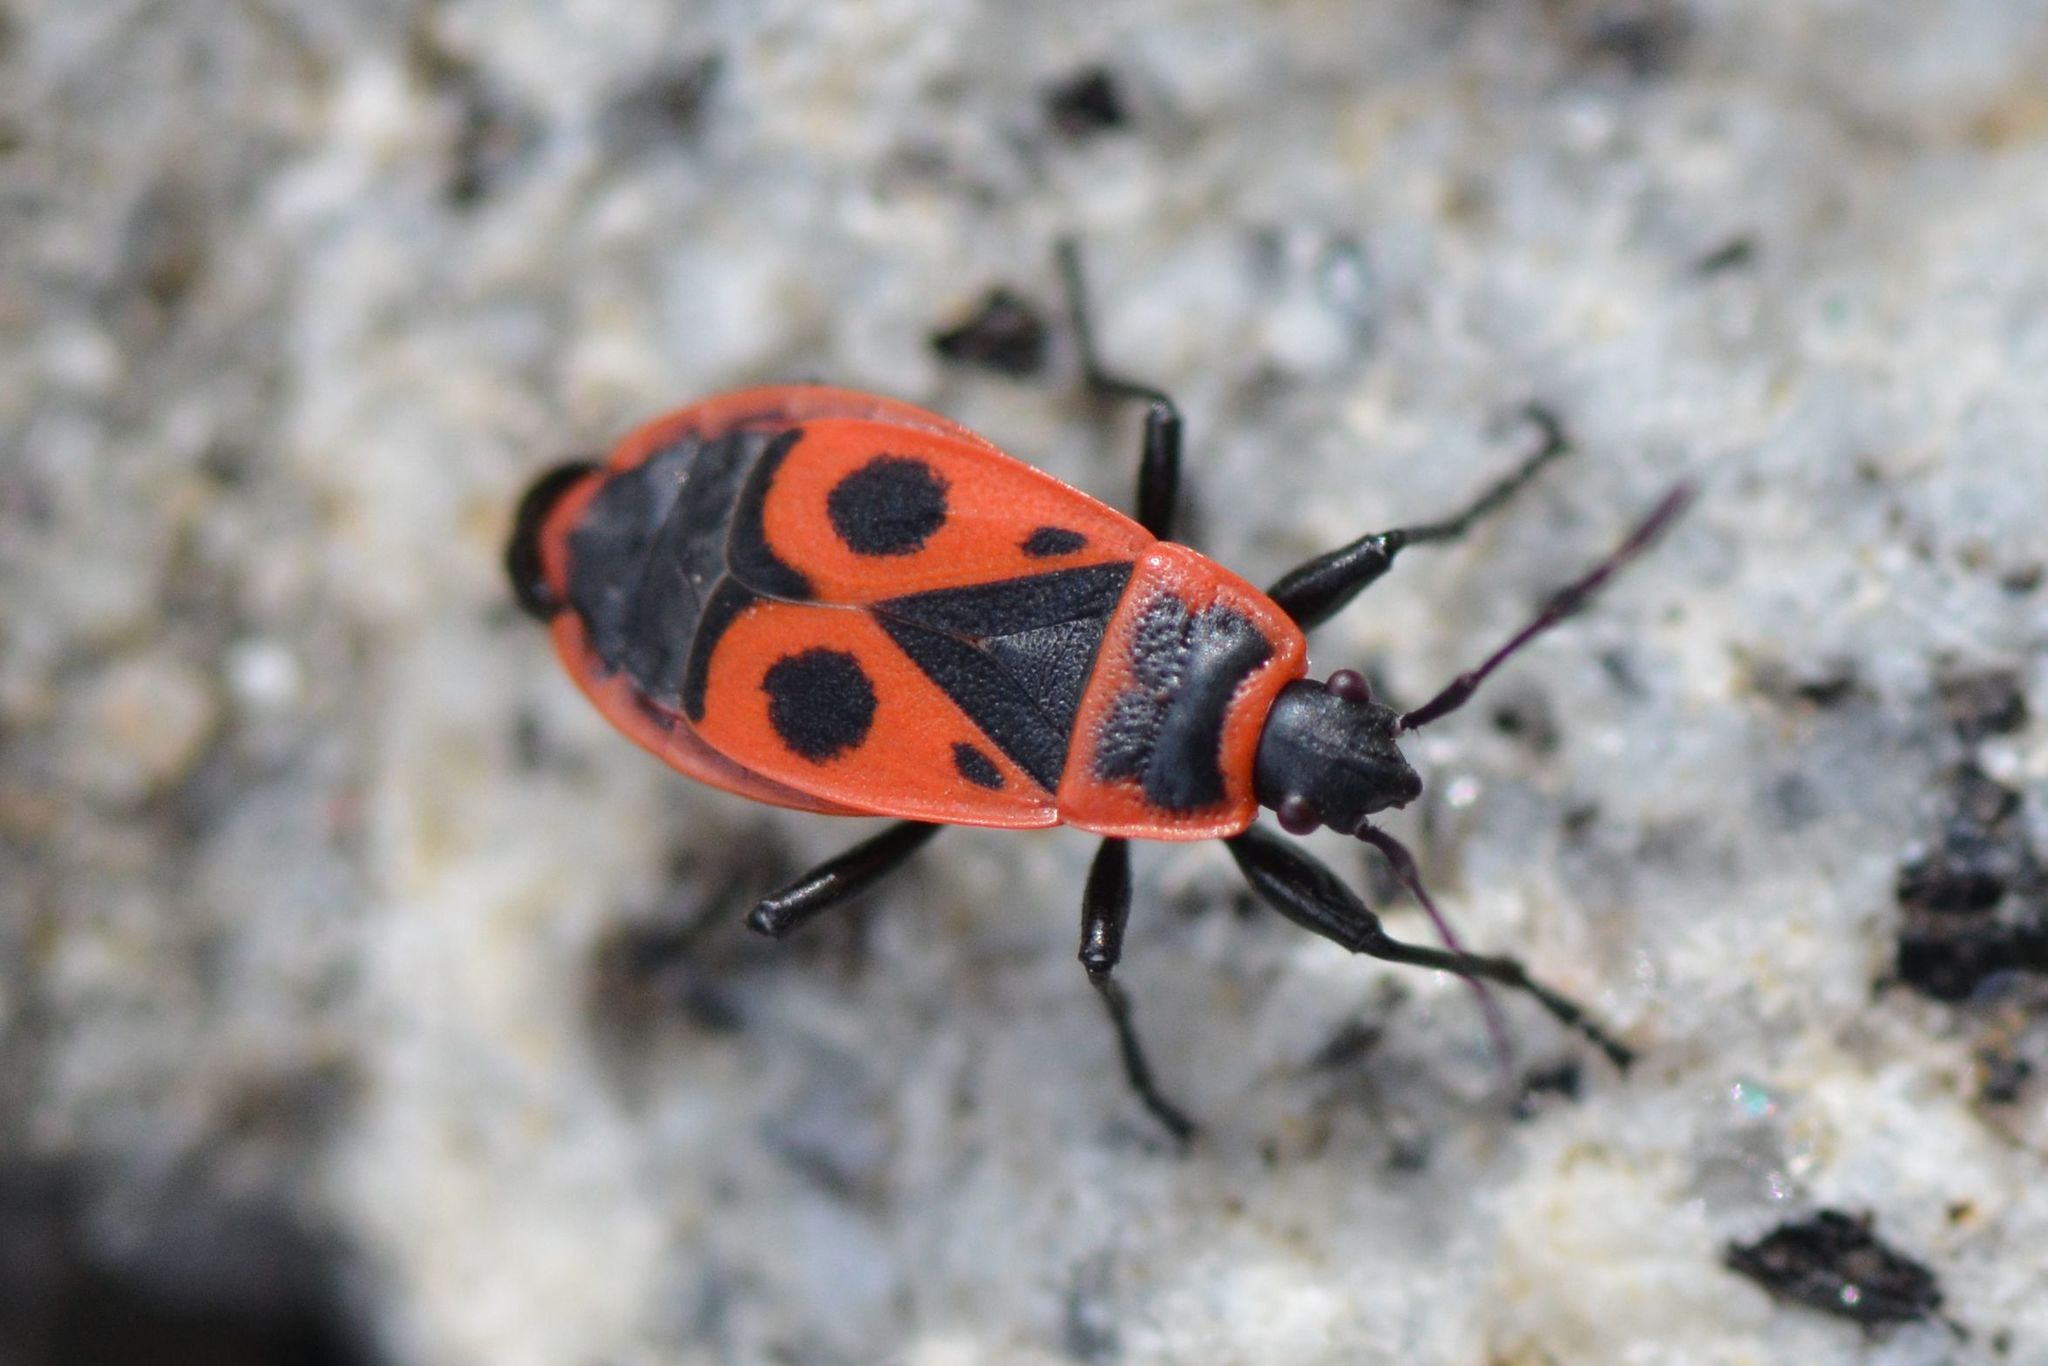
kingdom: Animalia
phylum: Arthropoda
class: Insecta
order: Hemiptera
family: Pyrrhocoridae
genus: Pyrrhocoris
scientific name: Pyrrhocoris apterus
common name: Firebug
